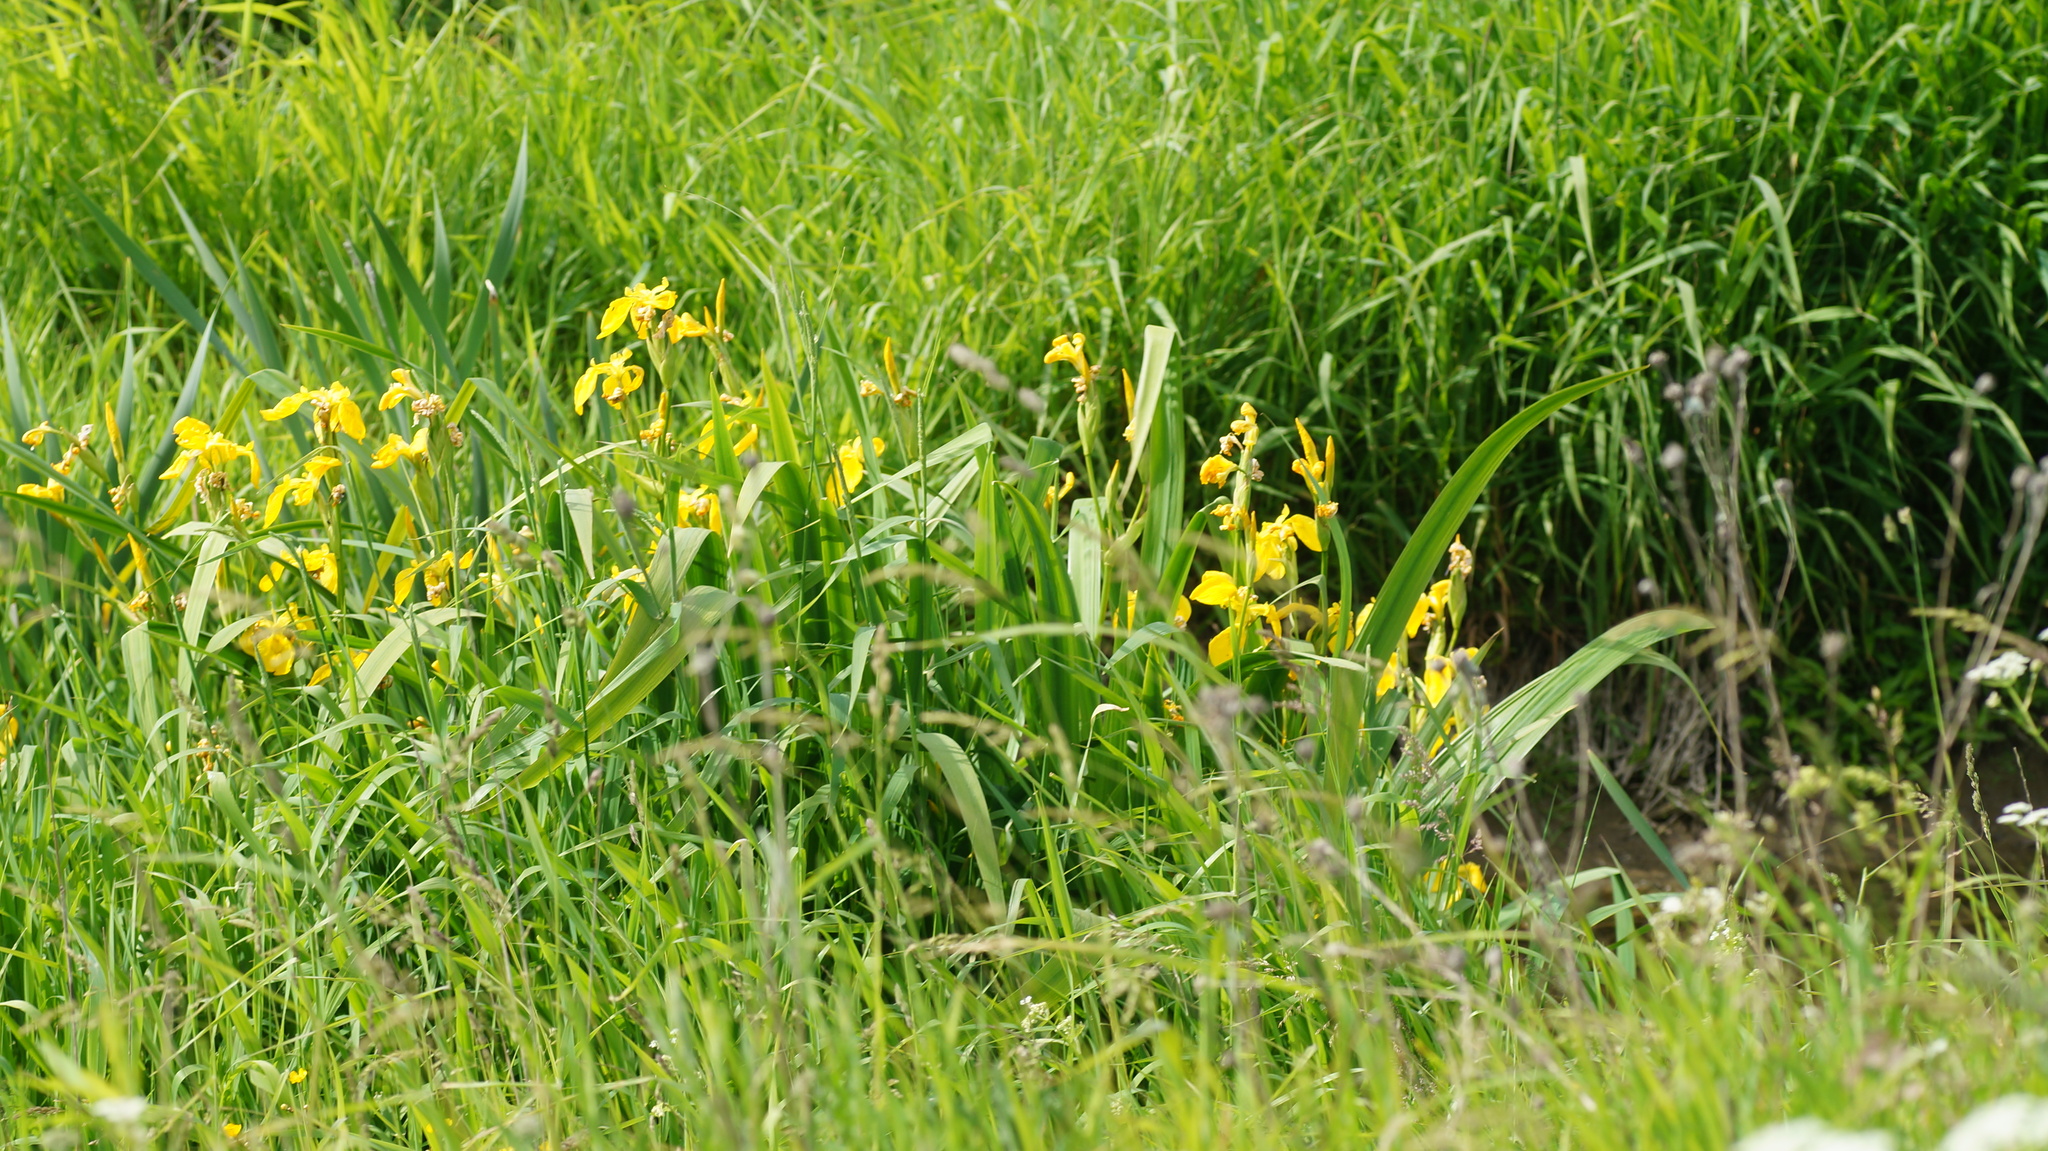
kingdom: Plantae
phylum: Tracheophyta
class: Liliopsida
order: Asparagales
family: Iridaceae
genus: Iris
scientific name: Iris pseudacorus
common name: Yellow flag
